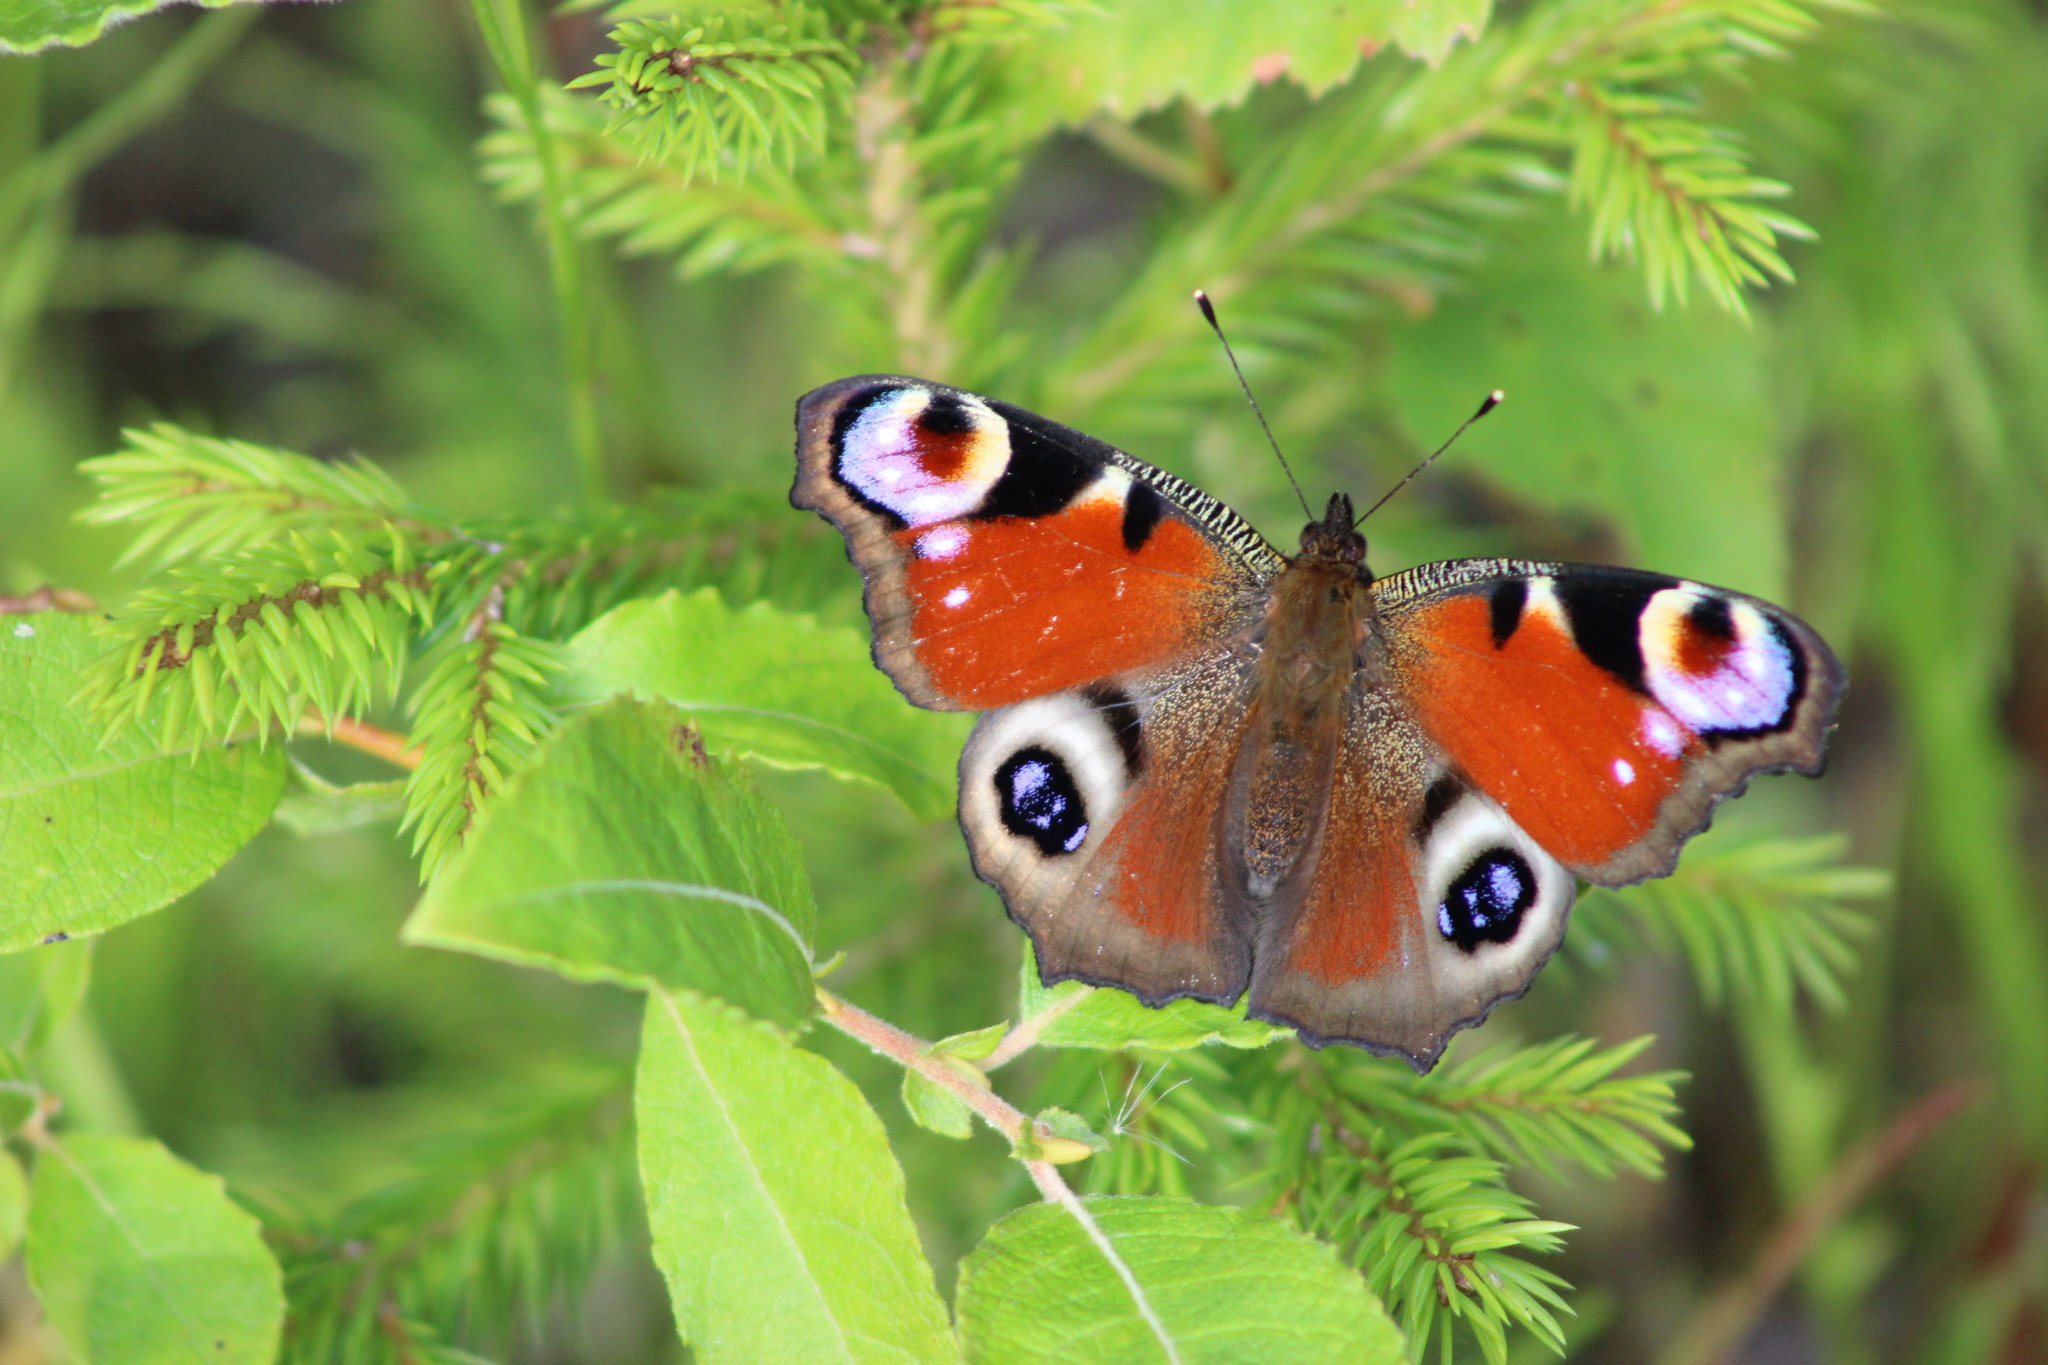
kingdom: Animalia
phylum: Arthropoda
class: Insecta
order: Lepidoptera
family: Nymphalidae
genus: Aglais
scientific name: Aglais io
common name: Peacock
